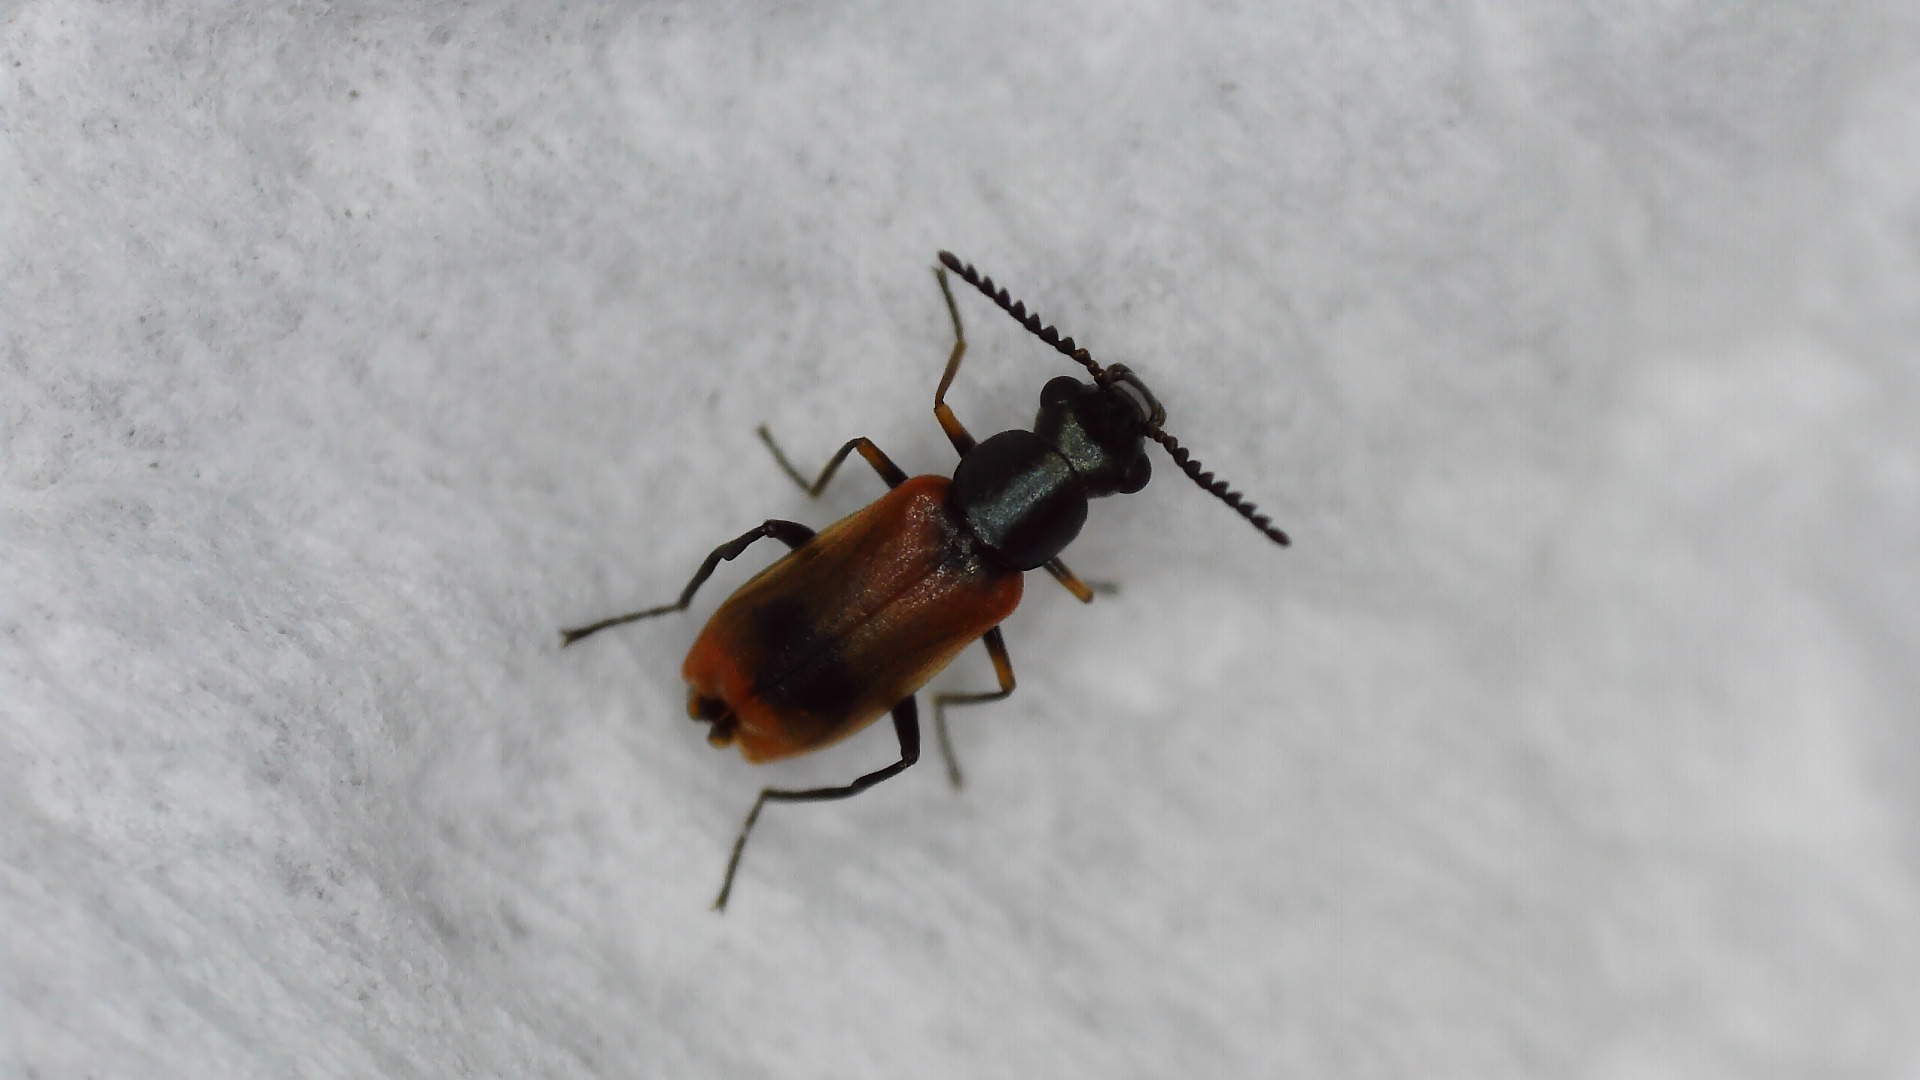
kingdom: Animalia
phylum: Arthropoda
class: Insecta
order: Coleoptera
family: Melyridae
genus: Anthocomus
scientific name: Anthocomus equestris
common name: Black-banded soft-winged flower beetle
